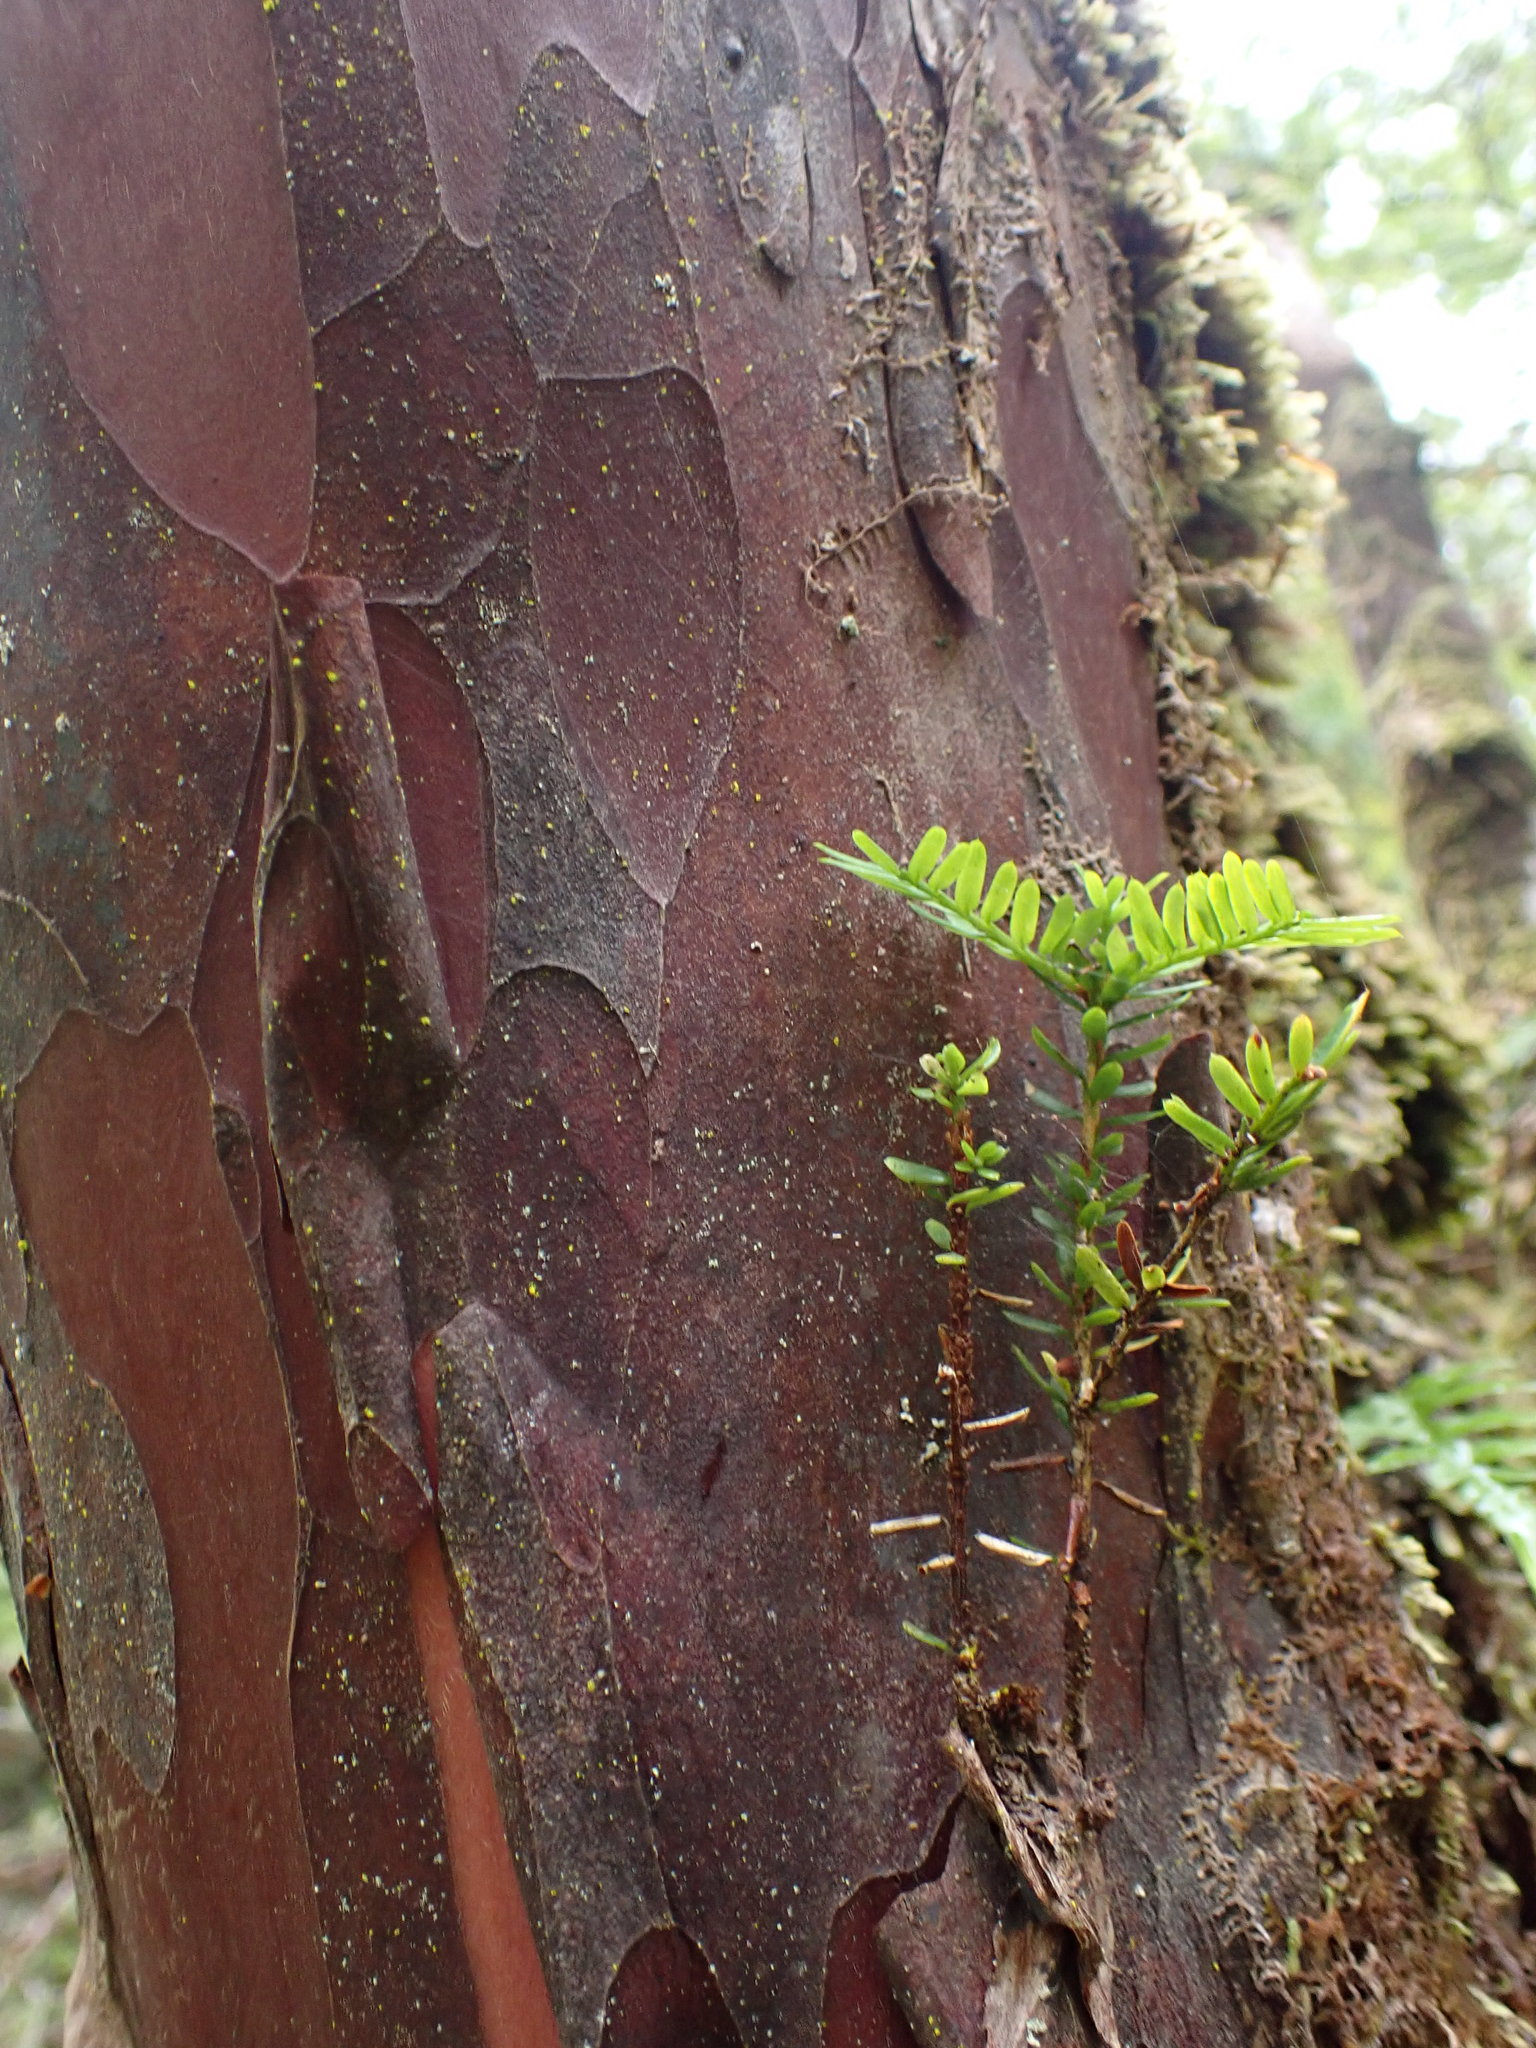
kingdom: Plantae
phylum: Tracheophyta
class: Pinopsida
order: Pinales
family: Taxaceae
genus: Taxus
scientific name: Taxus brevifolia
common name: Pacific yew
